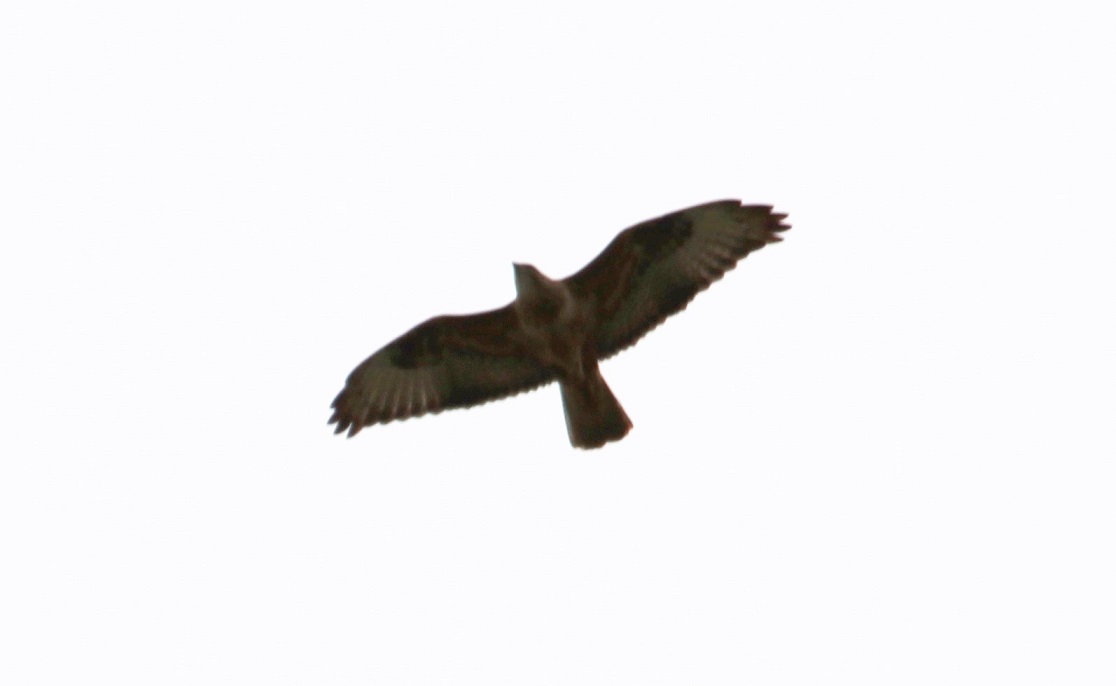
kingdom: Animalia
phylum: Chordata
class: Aves
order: Accipitriformes
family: Accipitridae
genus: Buteo
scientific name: Buteo rufinus
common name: Long-legged buzzard
